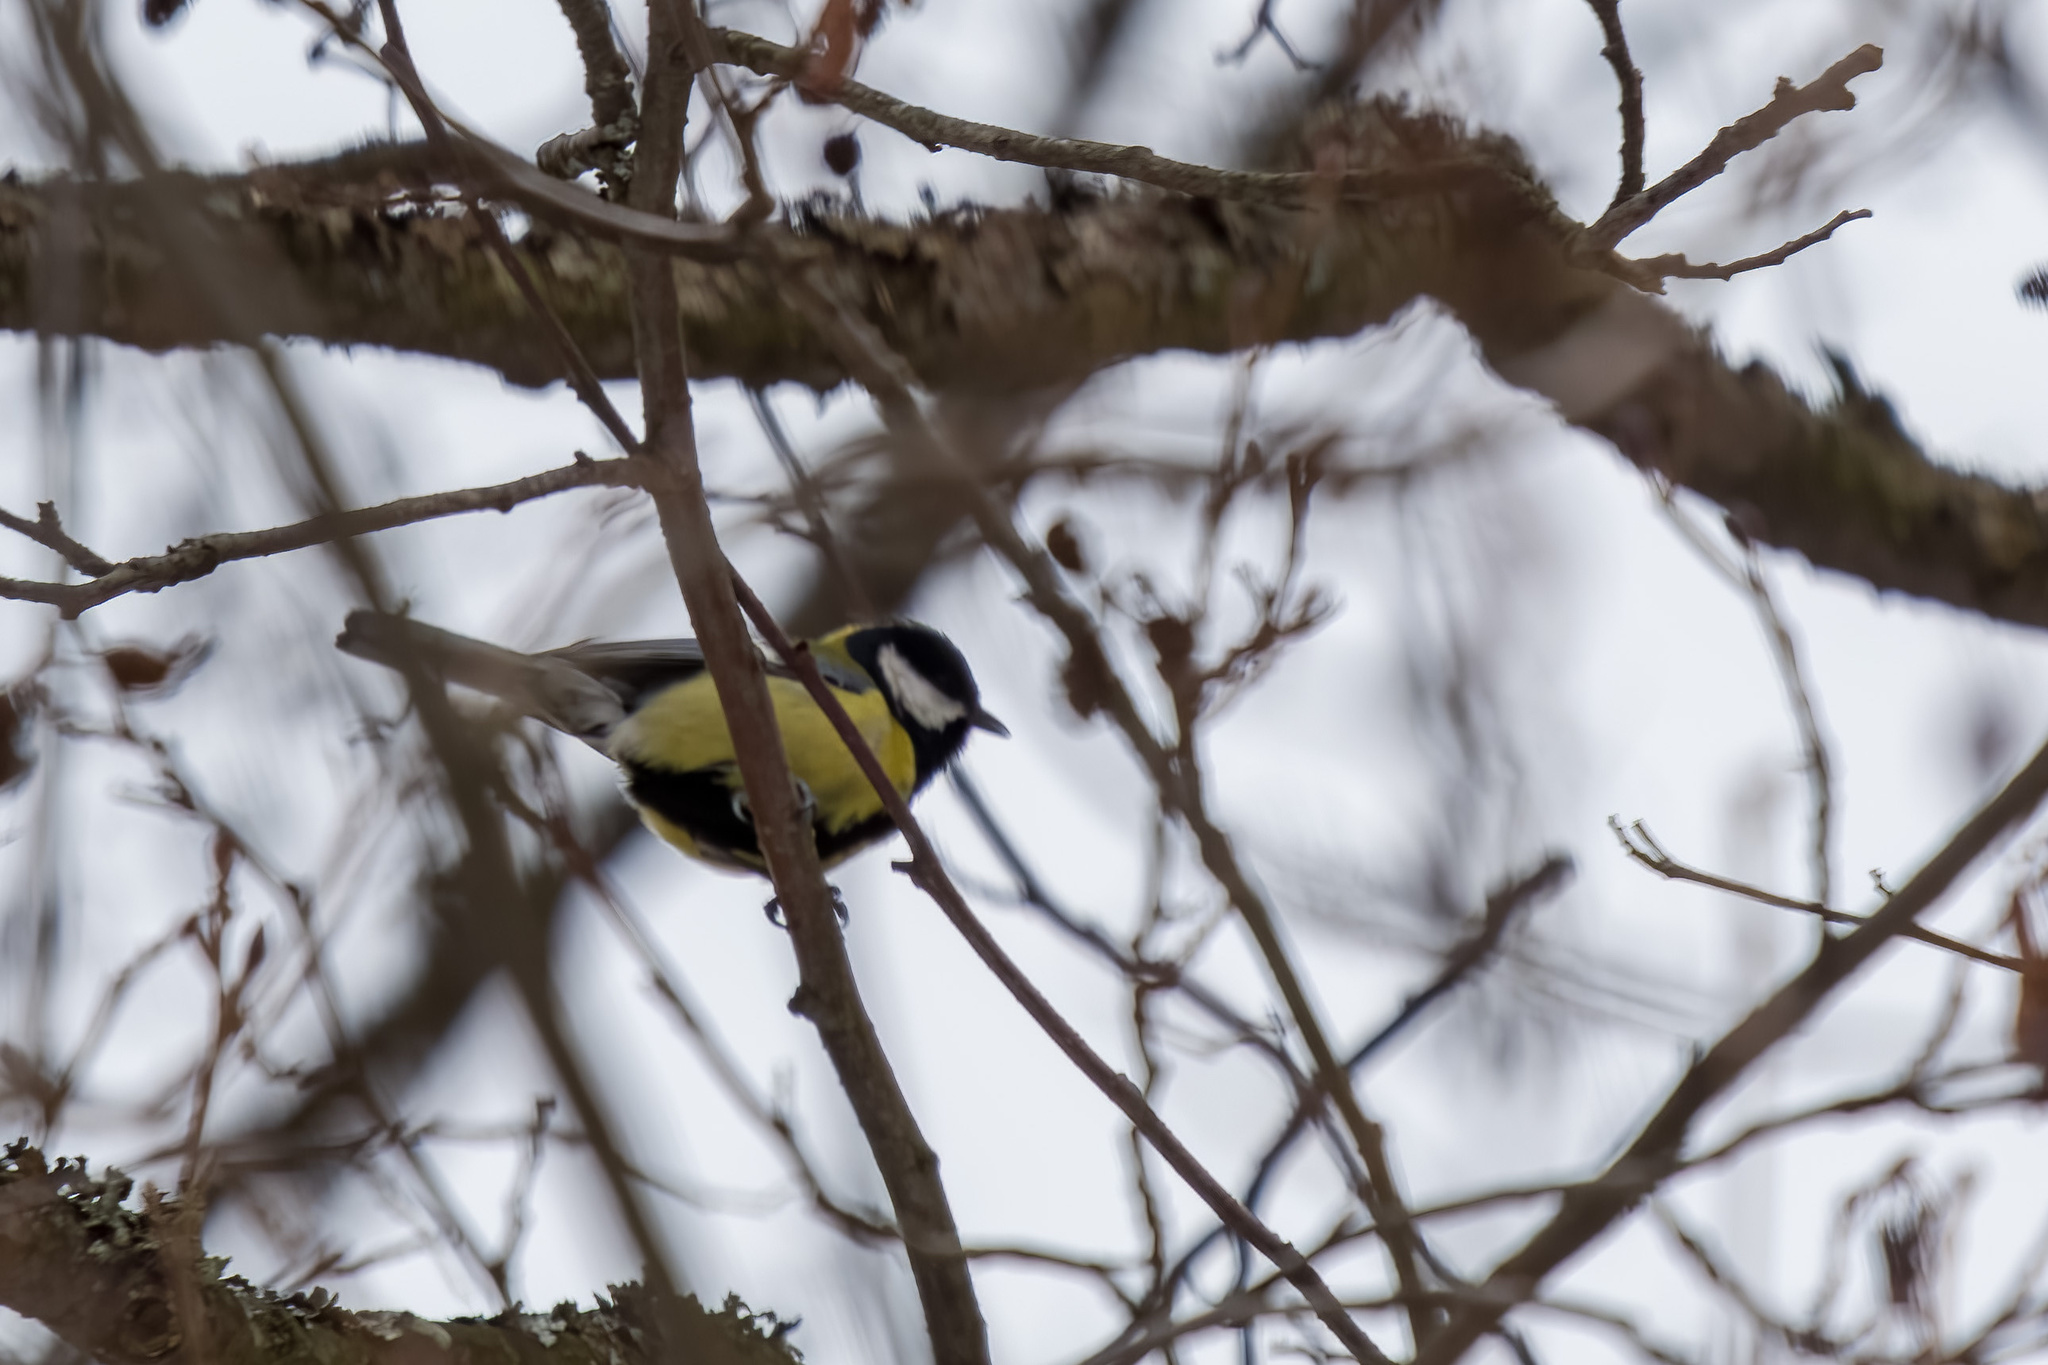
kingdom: Animalia
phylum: Chordata
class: Aves
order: Passeriformes
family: Paridae
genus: Parus
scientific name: Parus major
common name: Great tit
